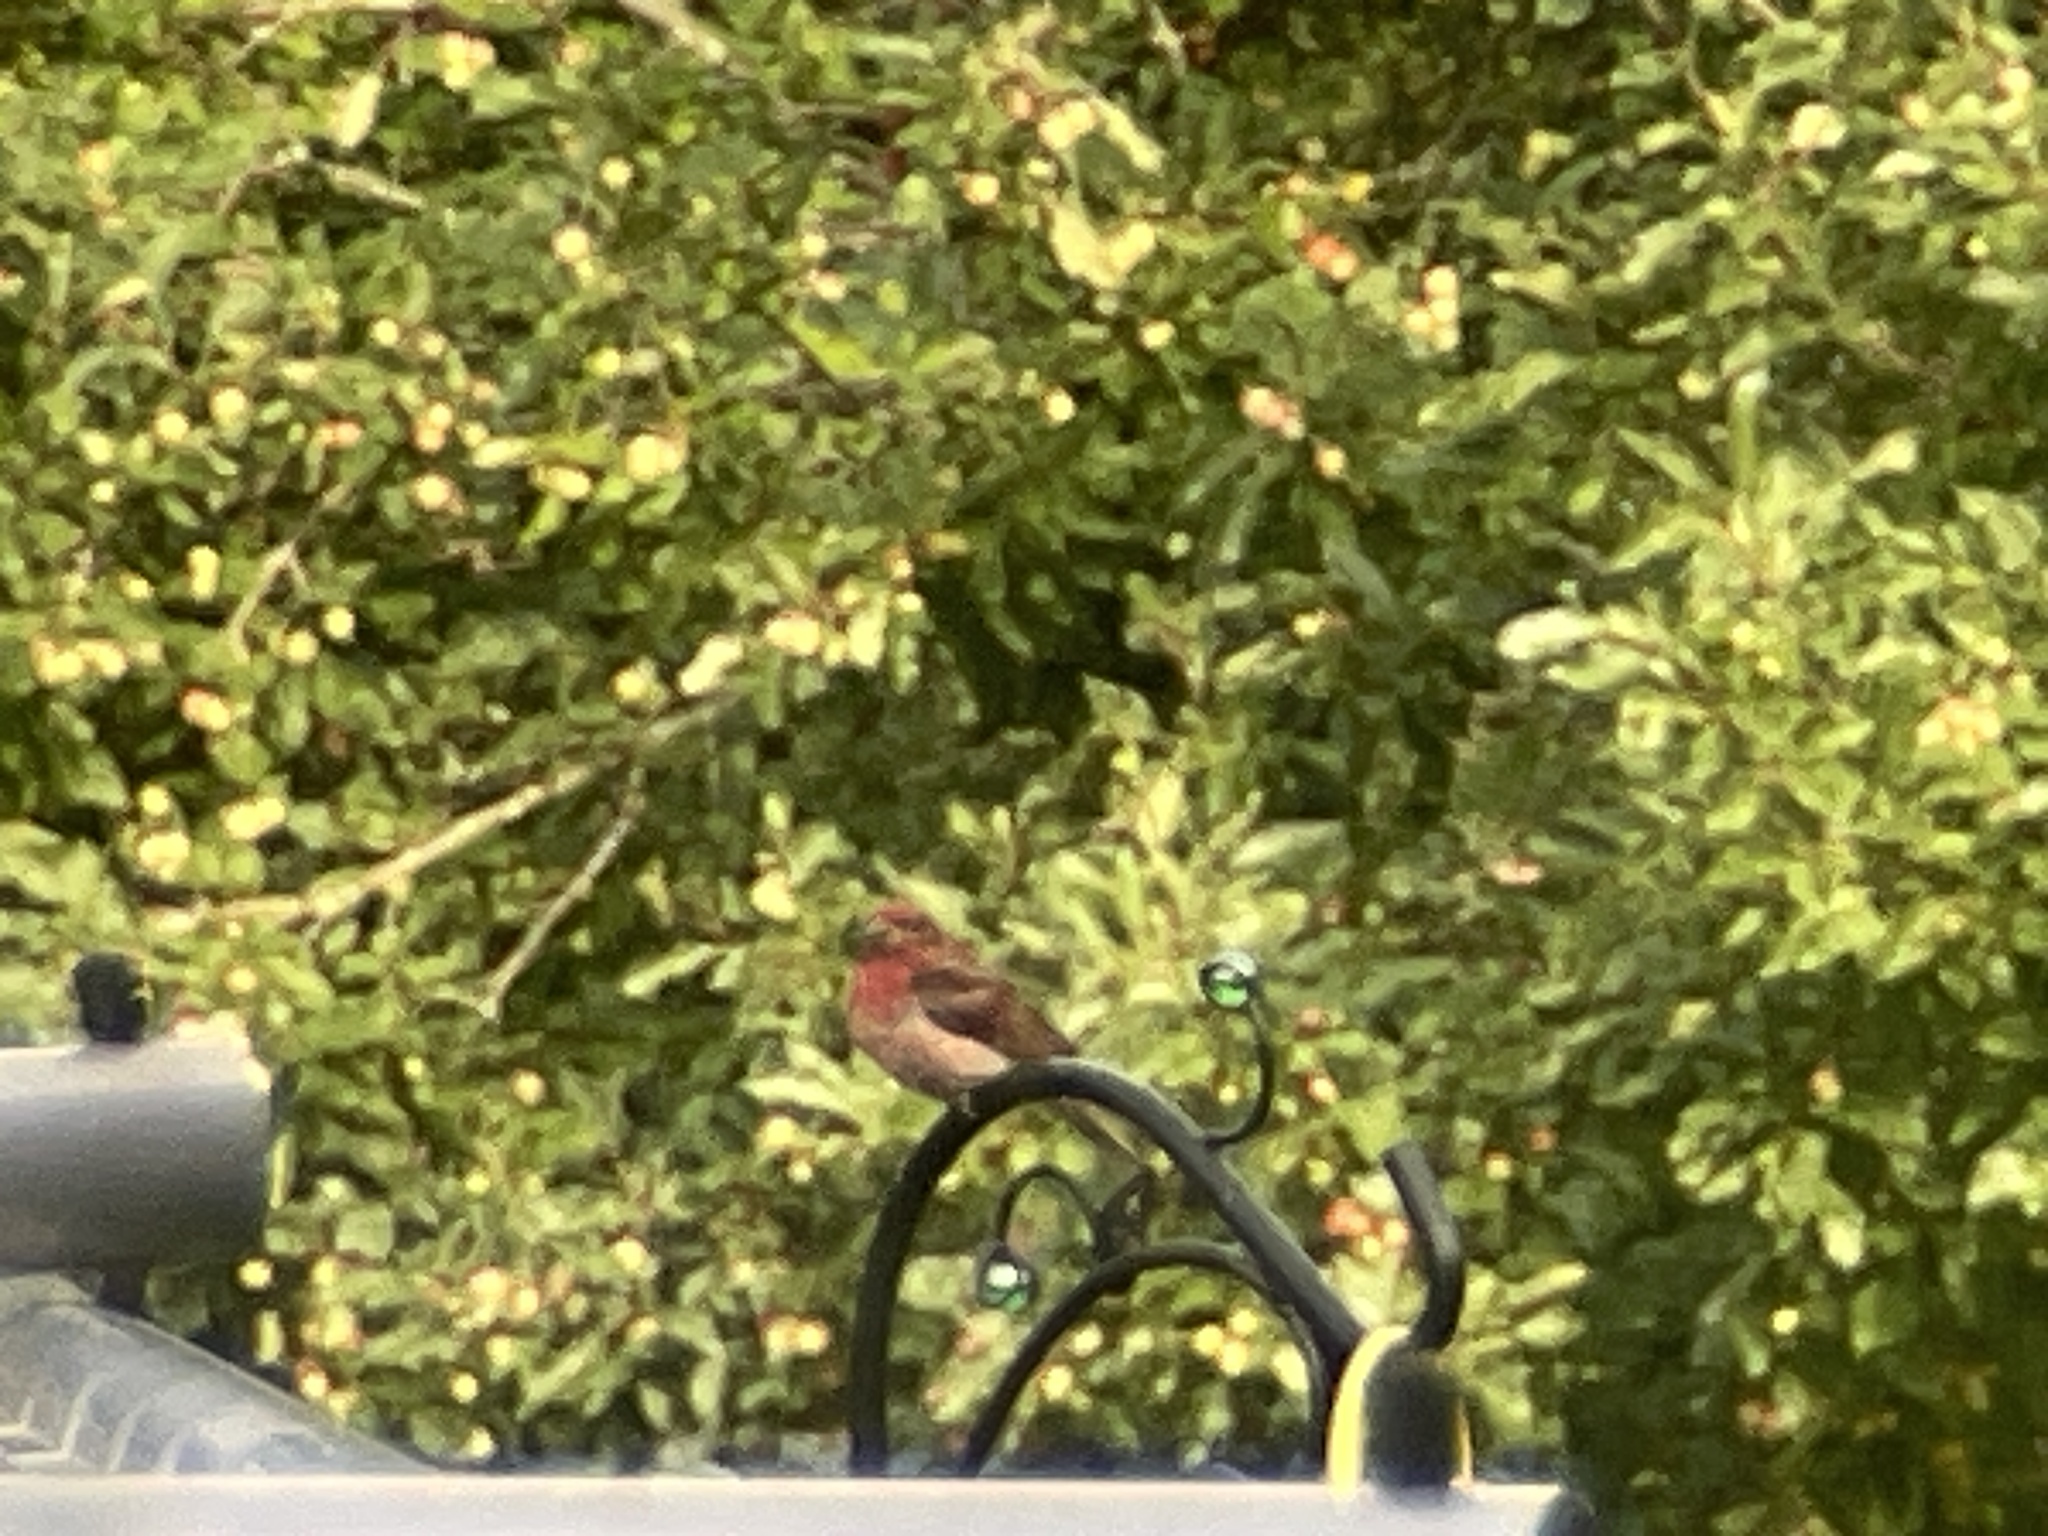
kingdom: Animalia
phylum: Chordata
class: Aves
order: Passeriformes
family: Fringillidae
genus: Haemorhous
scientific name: Haemorhous mexicanus
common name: House finch
